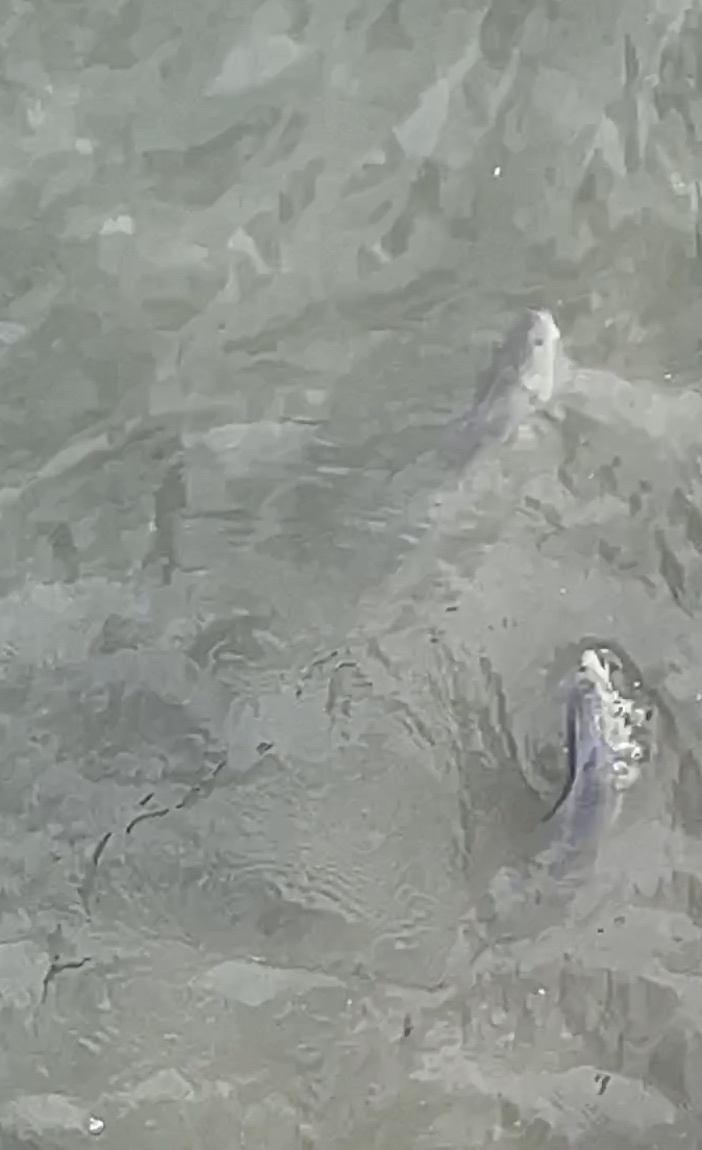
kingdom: Animalia
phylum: Chordata
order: Perciformes
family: Arripidae
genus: Arripis
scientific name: Arripis trutta
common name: Kahawai
